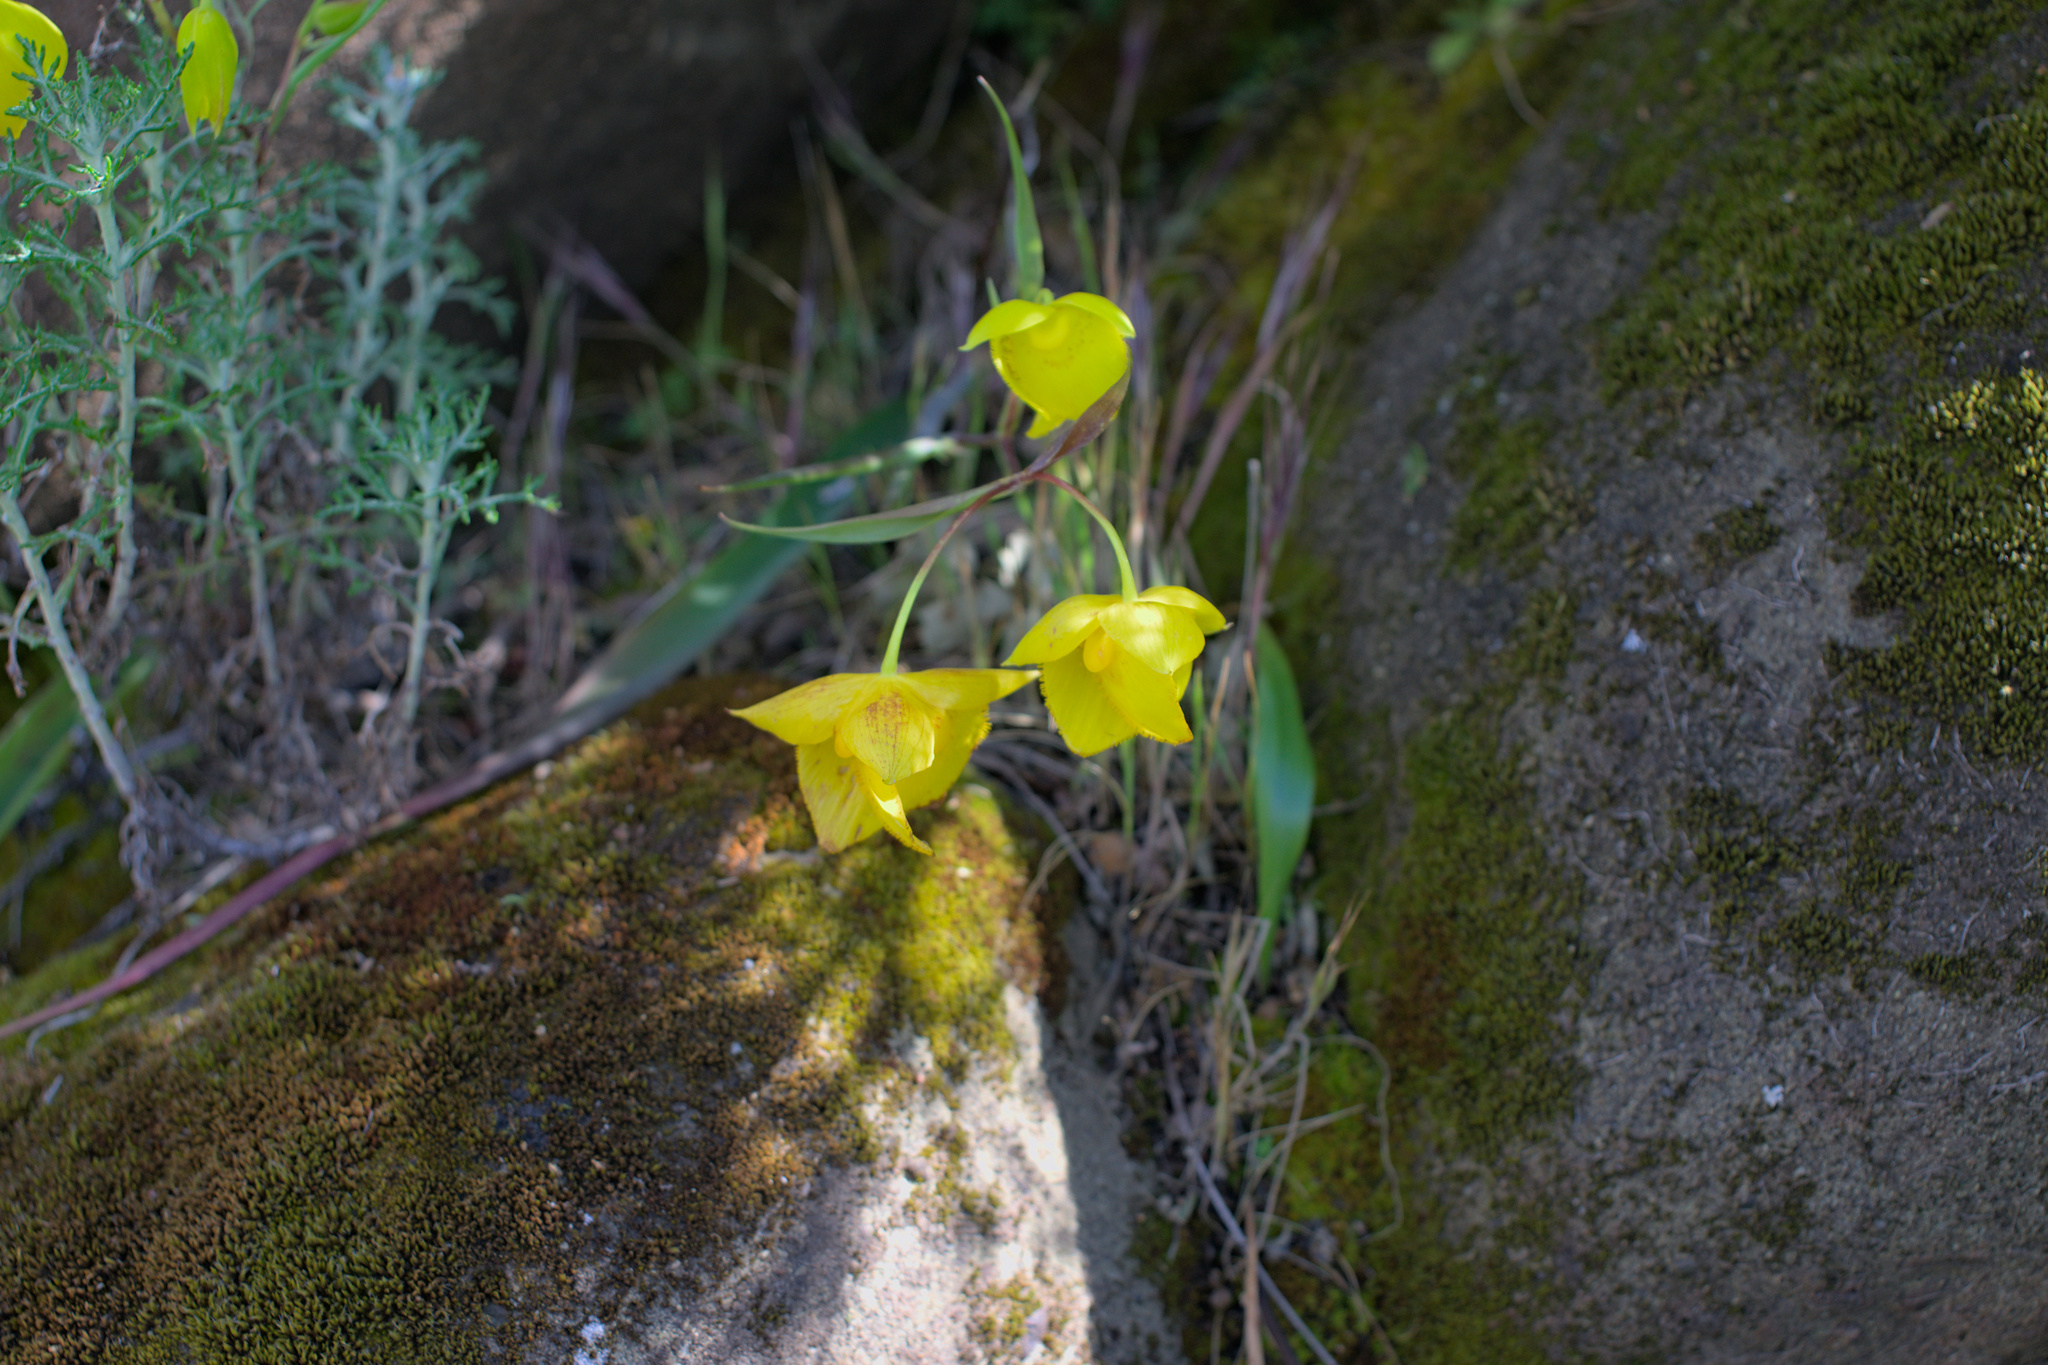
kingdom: Plantae
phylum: Tracheophyta
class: Liliopsida
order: Liliales
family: Liliaceae
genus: Calochortus
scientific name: Calochortus amabilis
